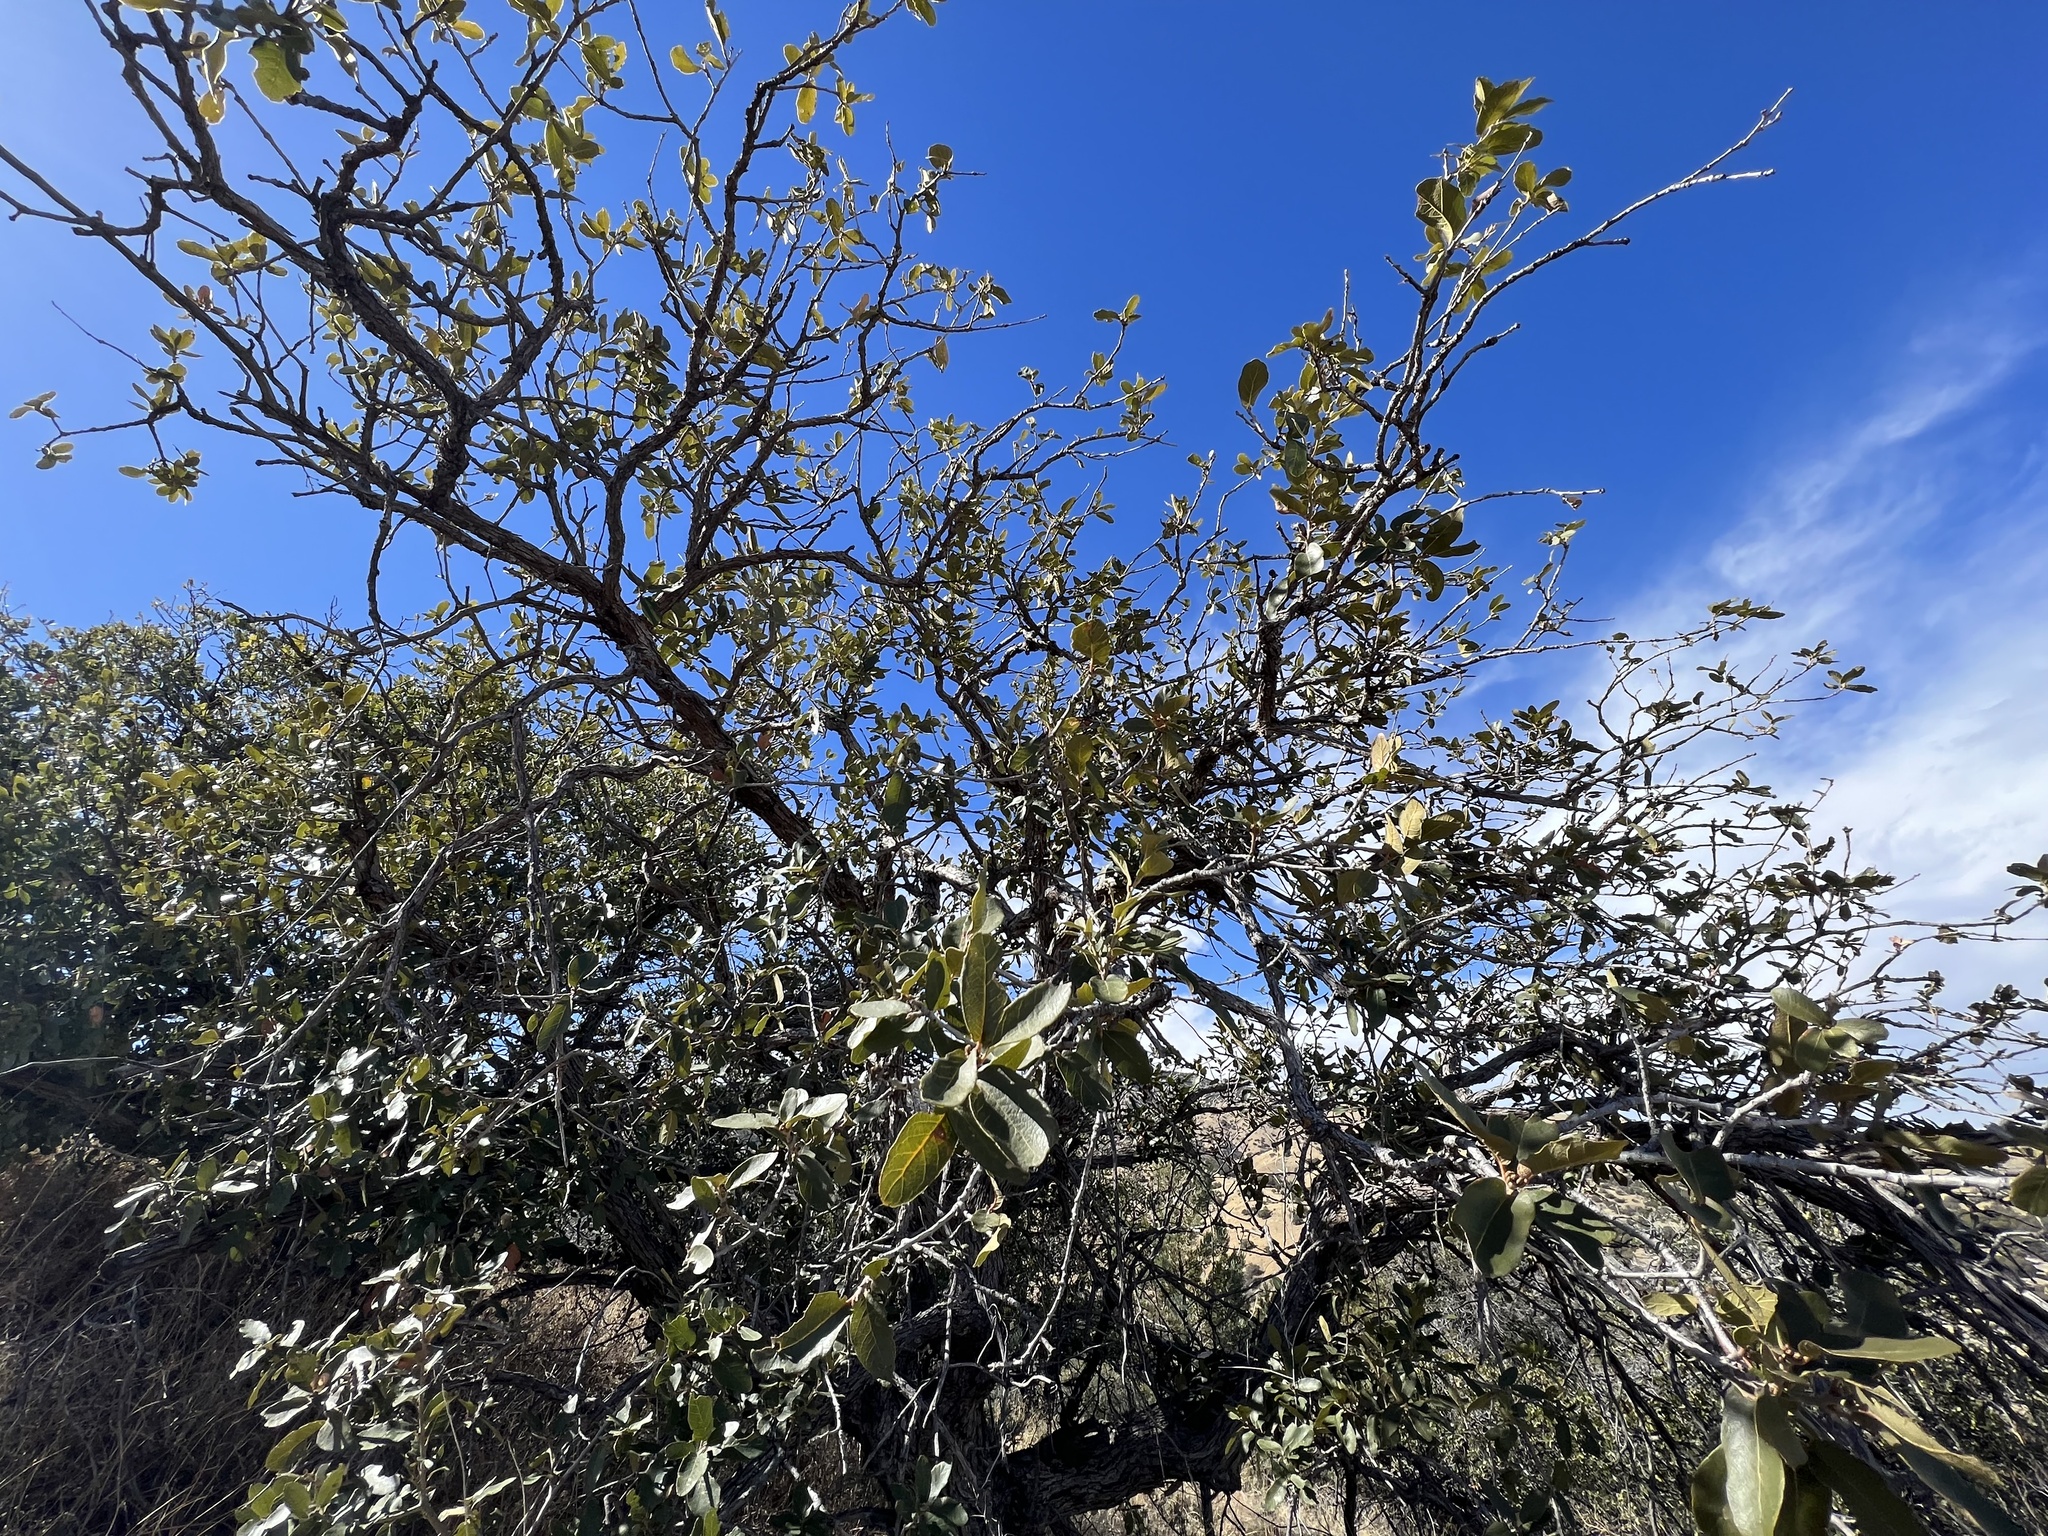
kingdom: Plantae
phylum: Tracheophyta
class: Magnoliopsida
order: Fagales
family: Fagaceae
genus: Quercus
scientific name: Quercus arizonica
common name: Arizona white oak
